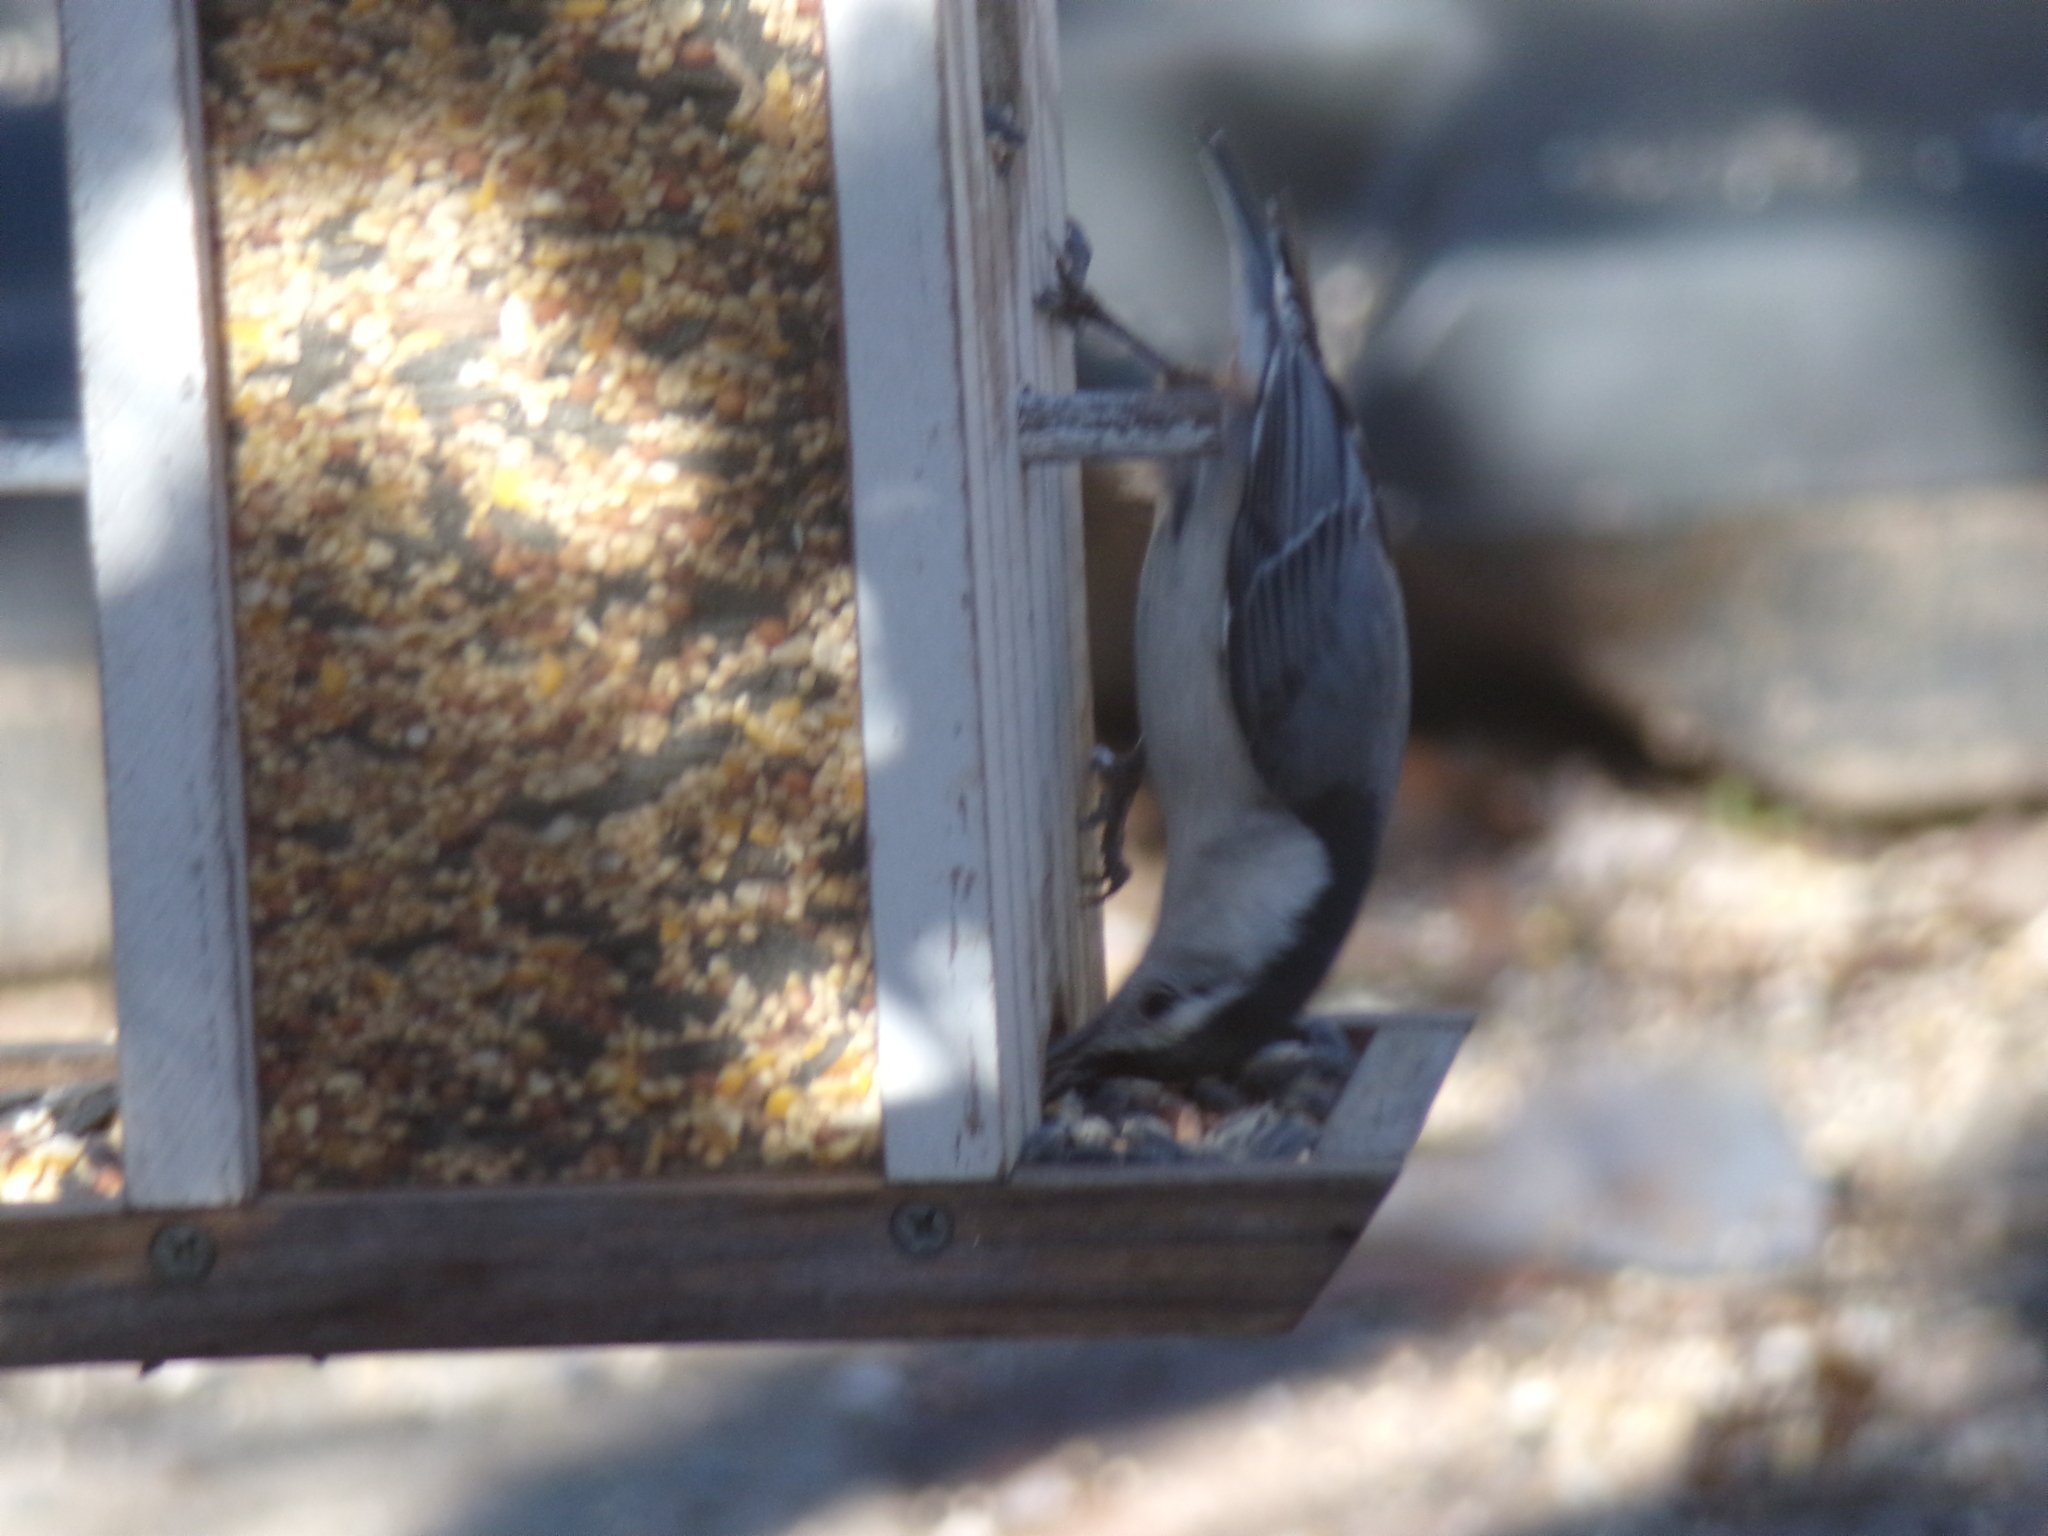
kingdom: Animalia
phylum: Chordata
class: Aves
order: Passeriformes
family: Sittidae
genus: Sitta
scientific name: Sitta carolinensis
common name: White-breasted nuthatch
